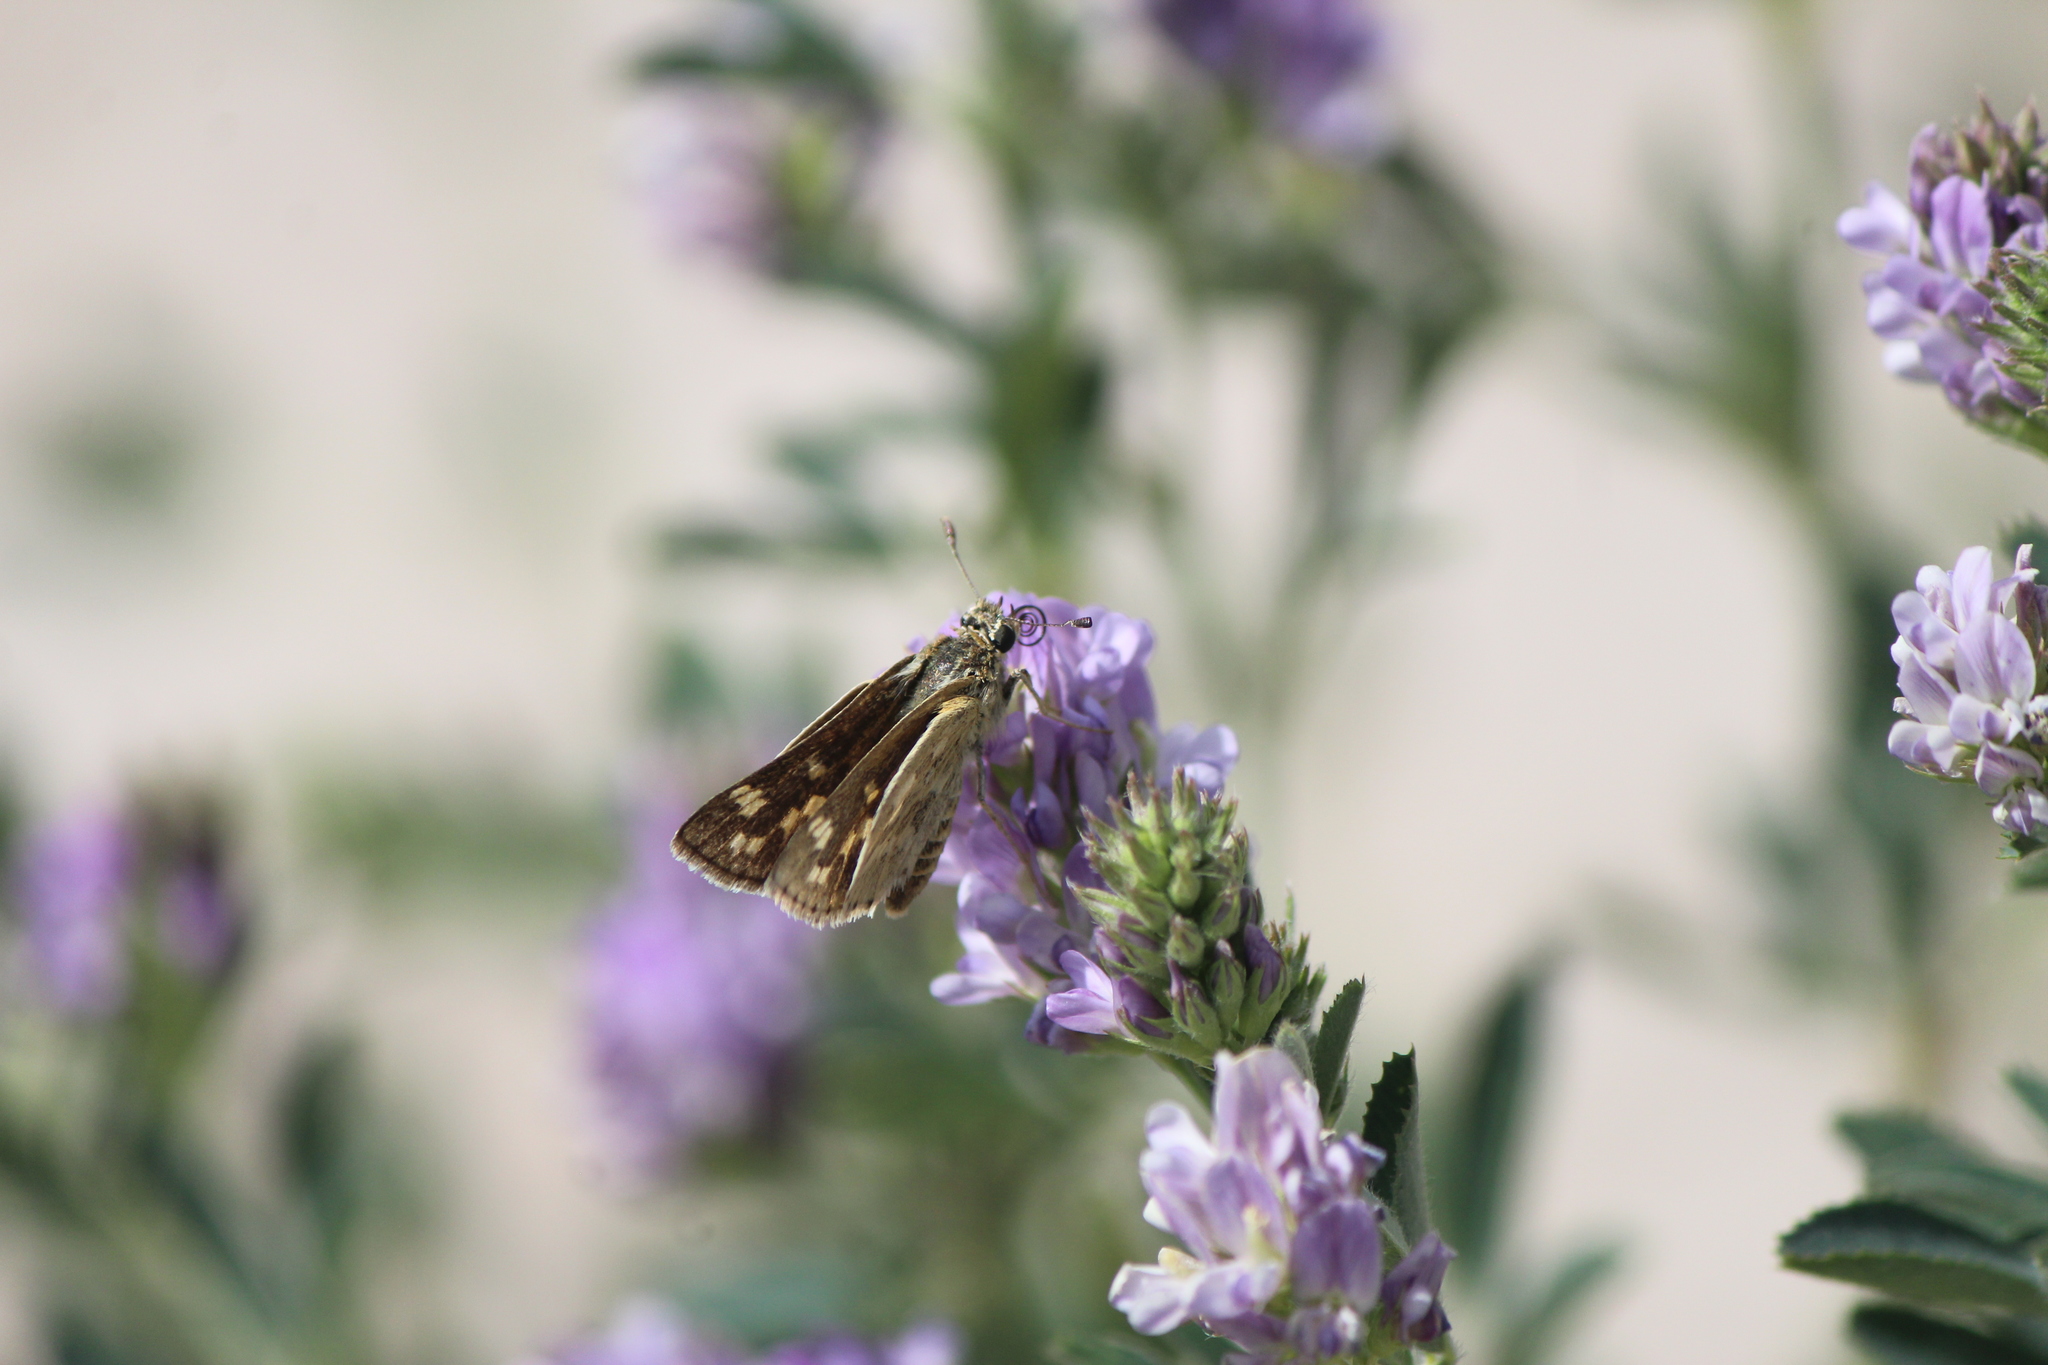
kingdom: Animalia
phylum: Arthropoda
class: Insecta
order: Lepidoptera
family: Hesperiidae
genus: Yvretta
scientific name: Yvretta carus
